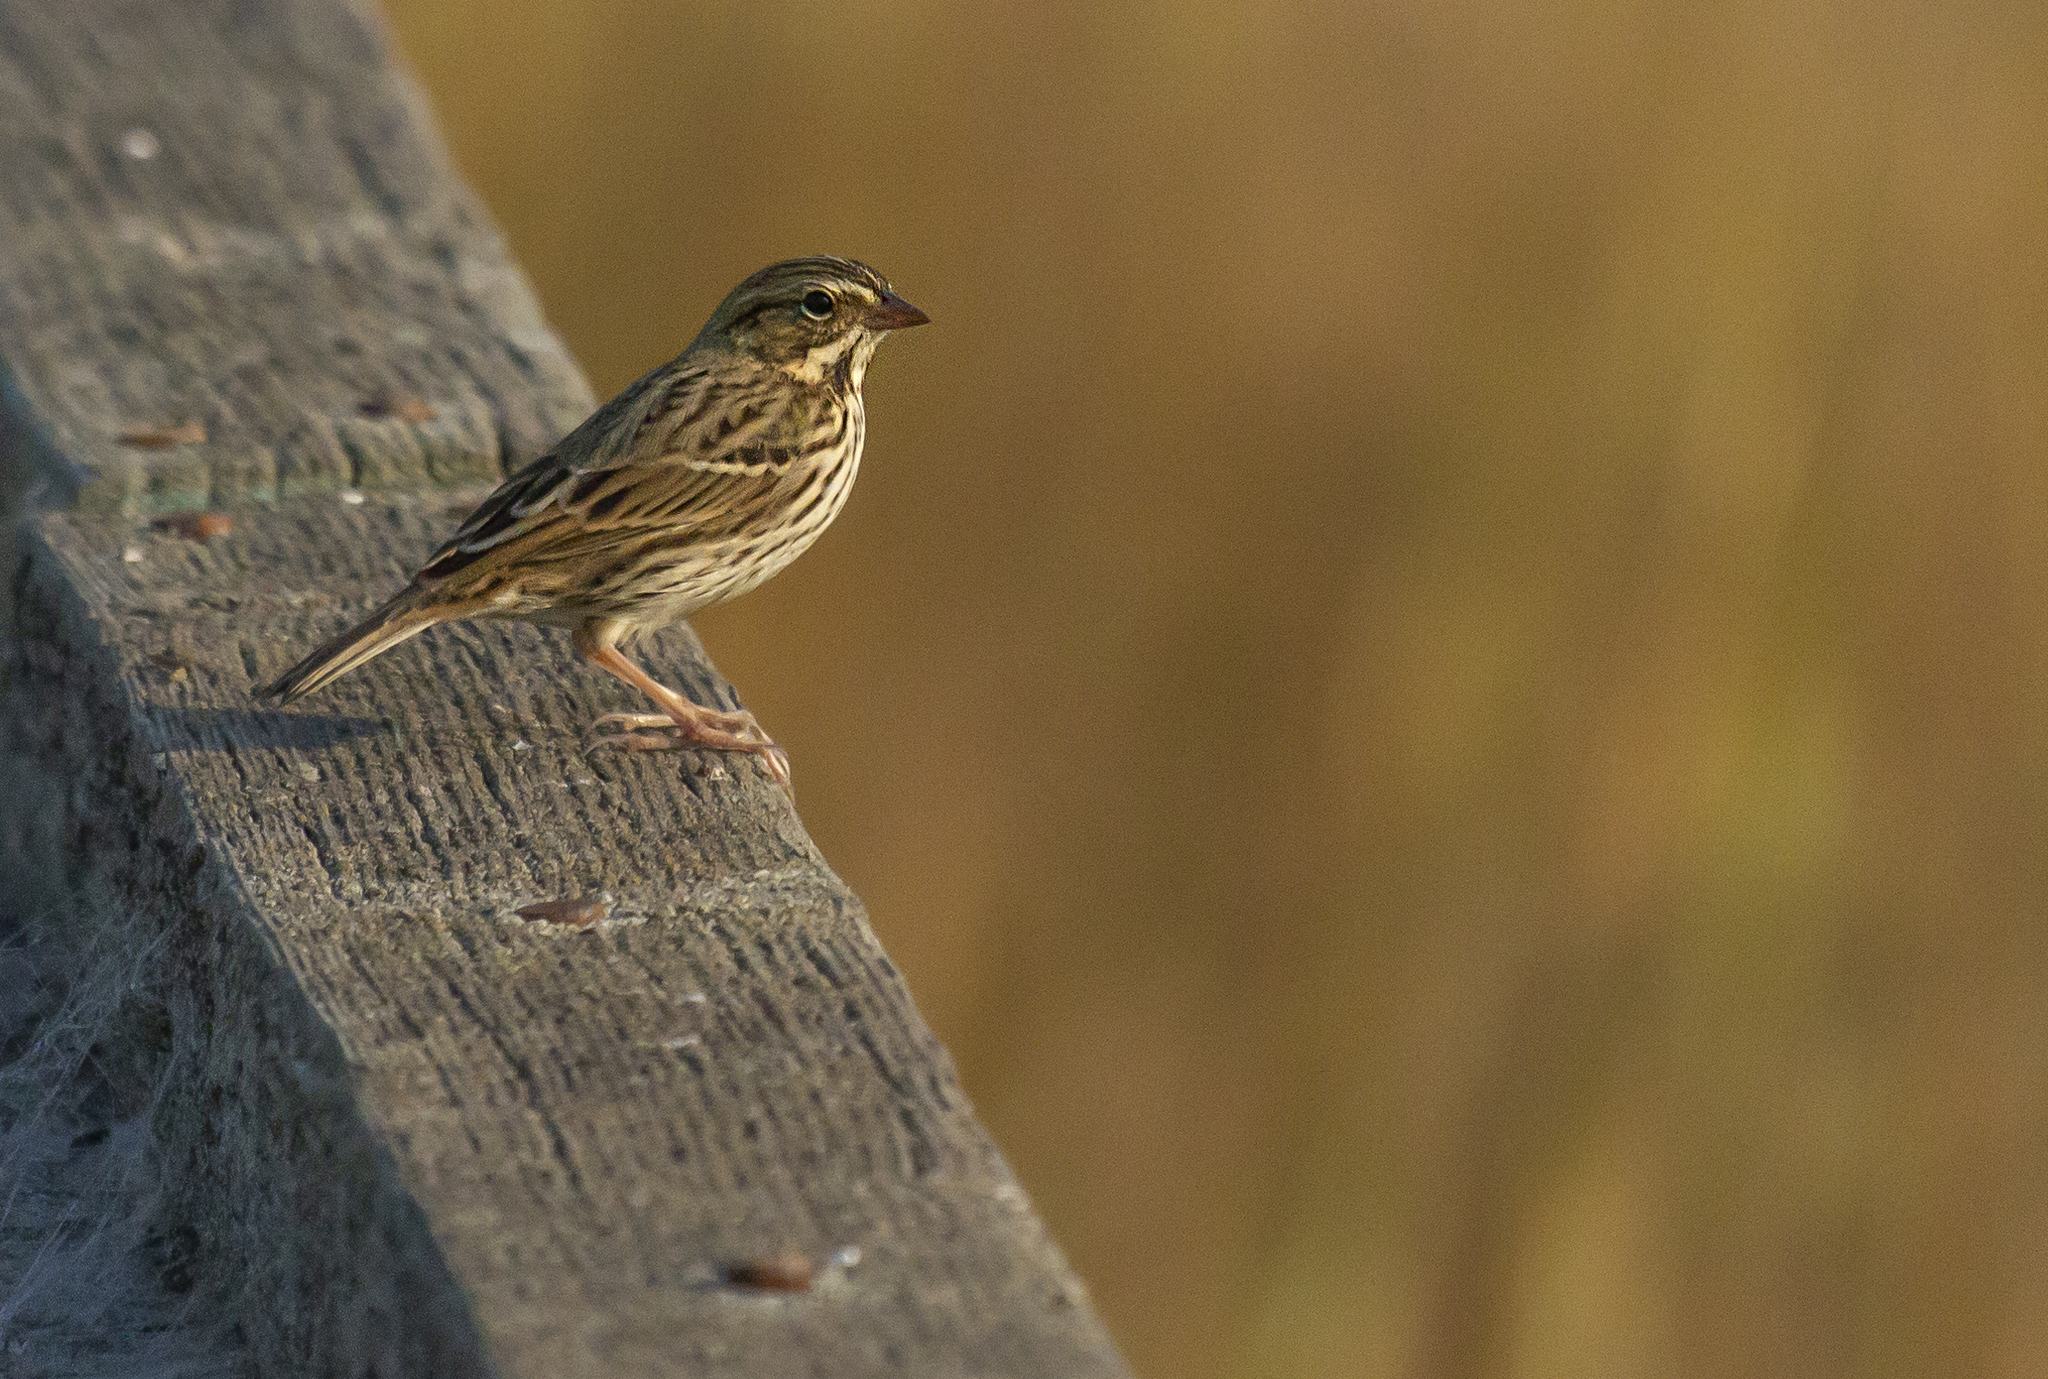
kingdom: Animalia
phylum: Chordata
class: Aves
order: Passeriformes
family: Passerellidae
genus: Passerculus
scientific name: Passerculus sandwichensis
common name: Savannah sparrow
